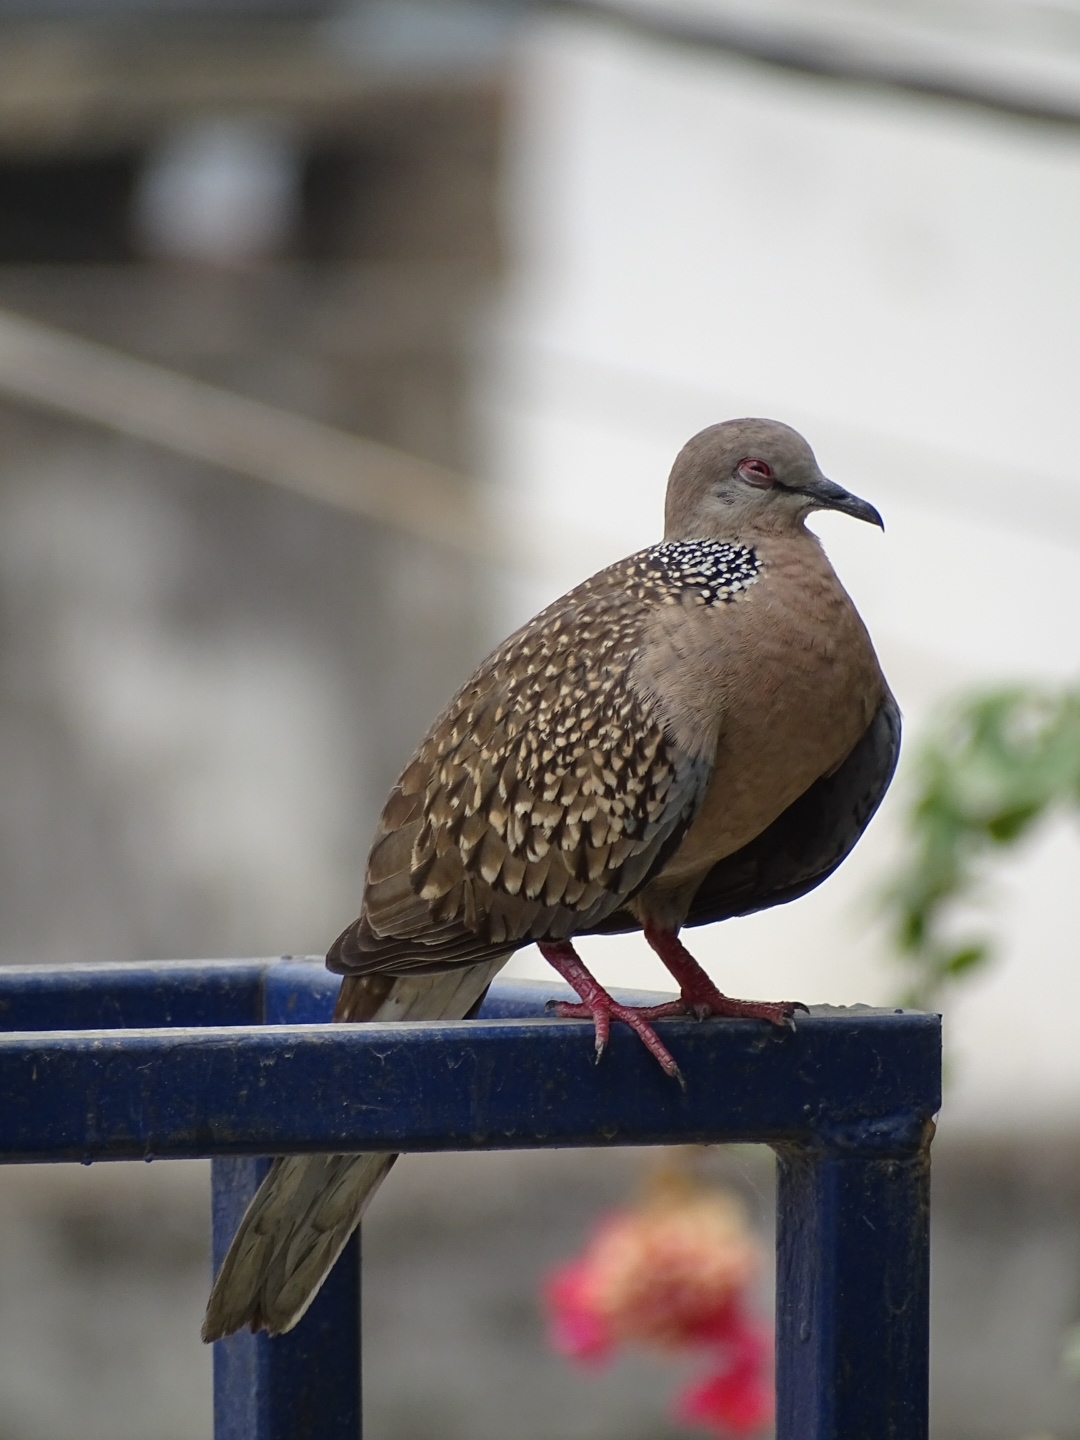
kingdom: Animalia
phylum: Chordata
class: Aves
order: Columbiformes
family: Columbidae
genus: Spilopelia
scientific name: Spilopelia chinensis
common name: Spotted dove
